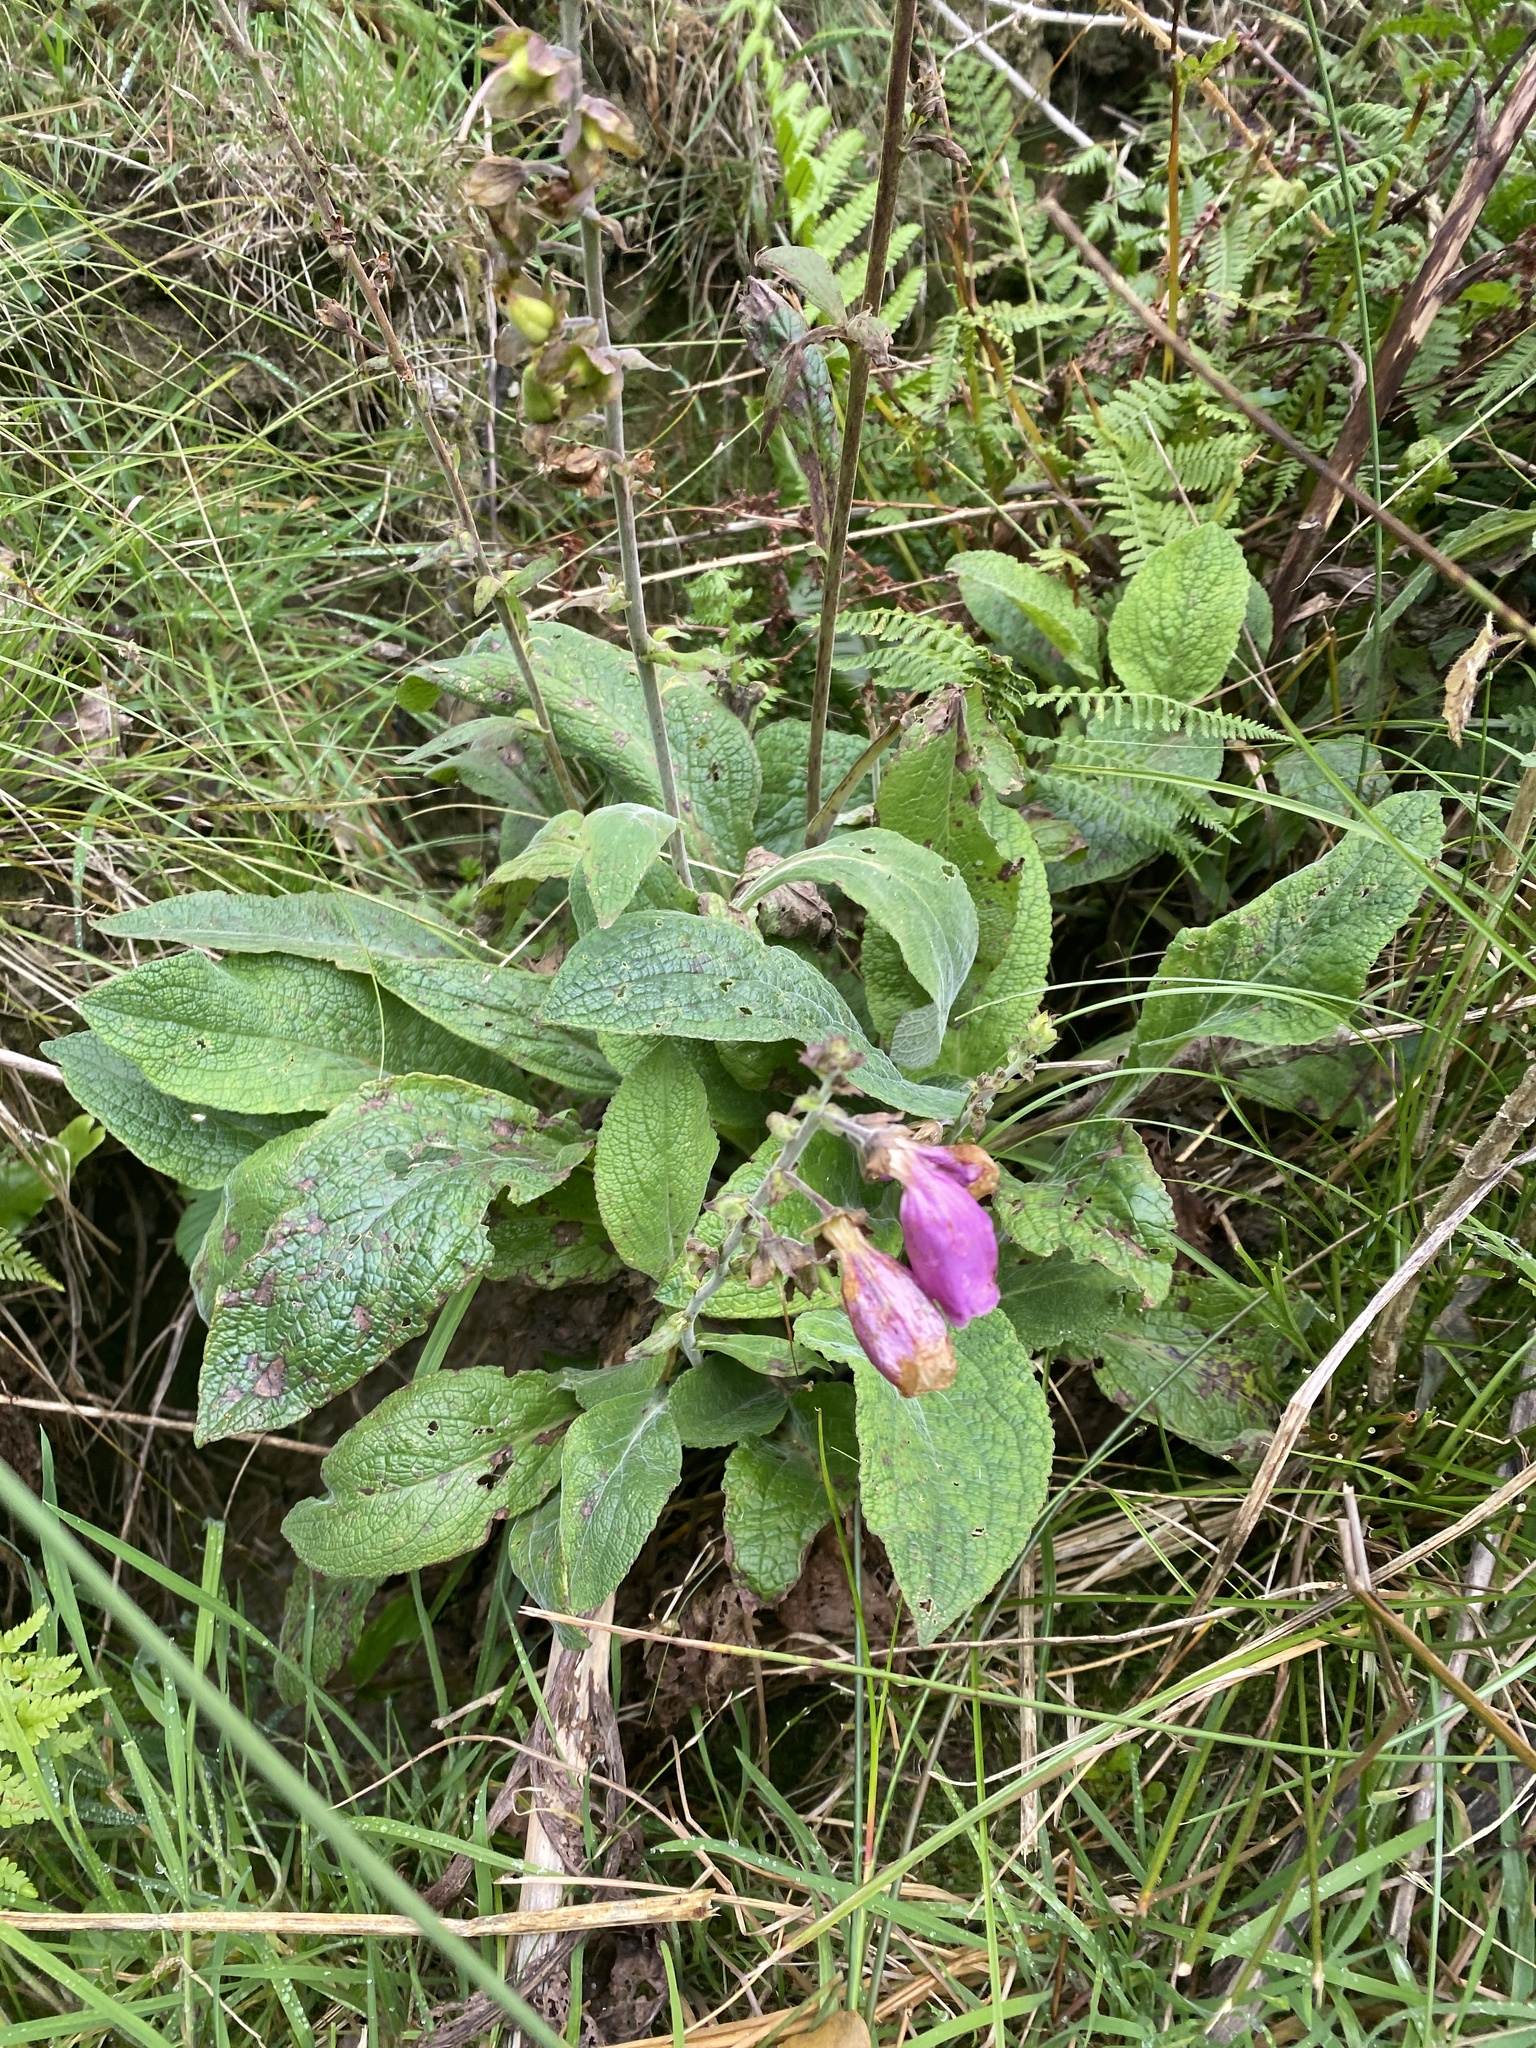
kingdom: Plantae
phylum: Tracheophyta
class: Magnoliopsida
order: Lamiales
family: Plantaginaceae
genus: Digitalis
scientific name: Digitalis purpurea
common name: Foxglove
